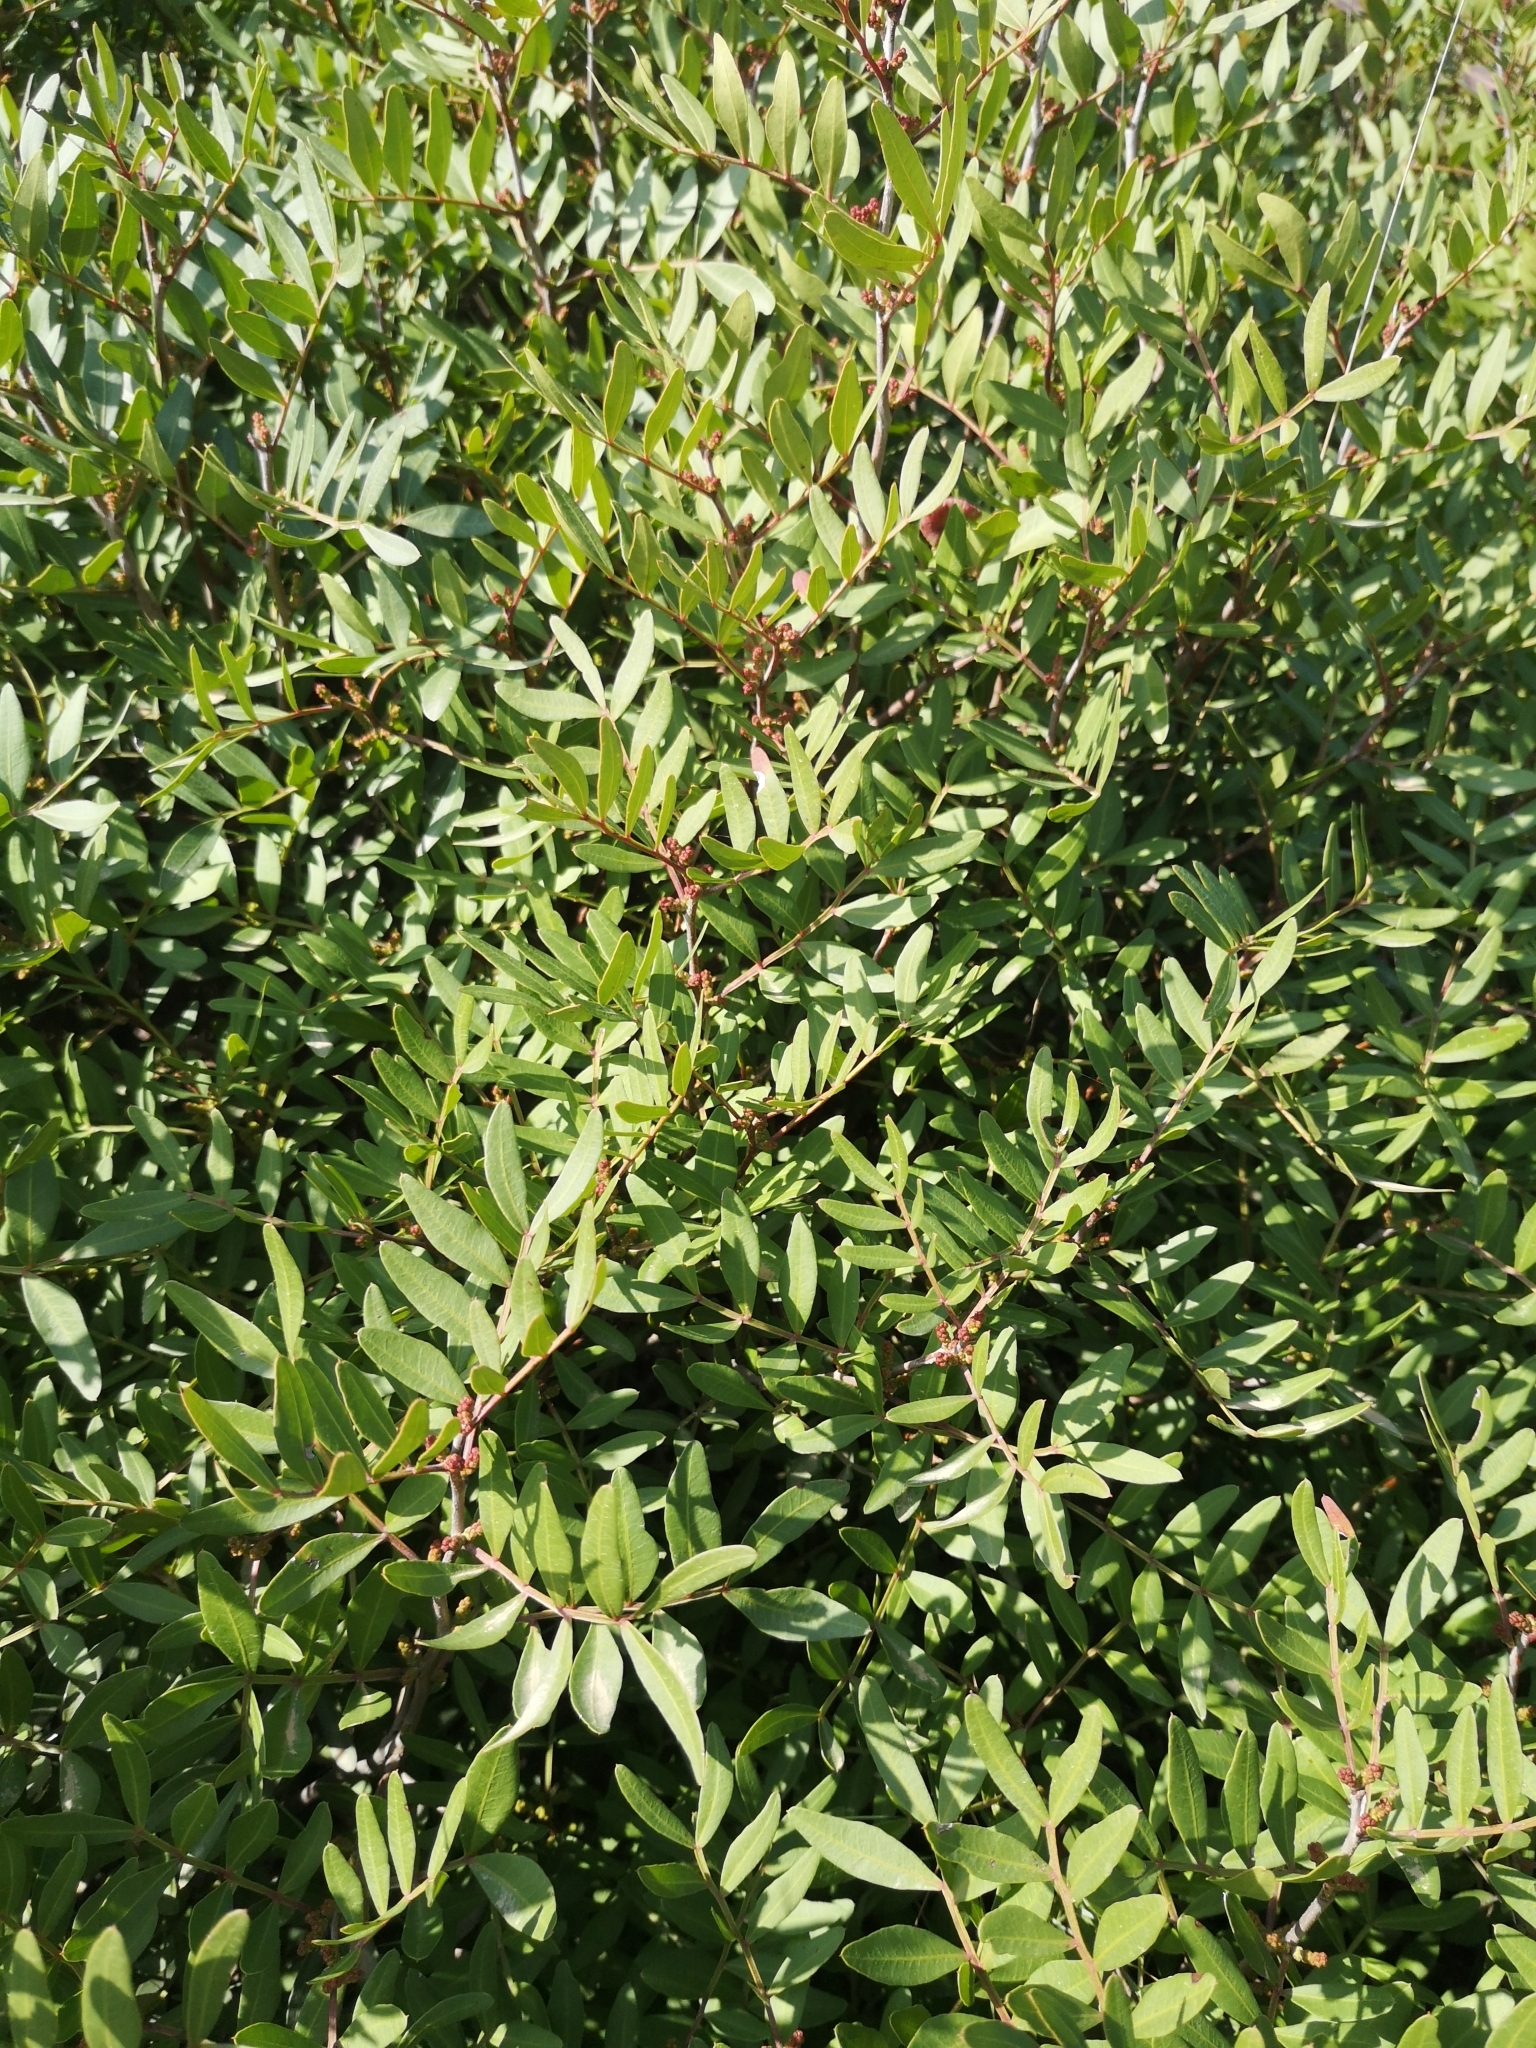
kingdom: Plantae
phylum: Tracheophyta
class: Magnoliopsida
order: Sapindales
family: Anacardiaceae
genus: Pistacia
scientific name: Pistacia lentiscus
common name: Lentisk
